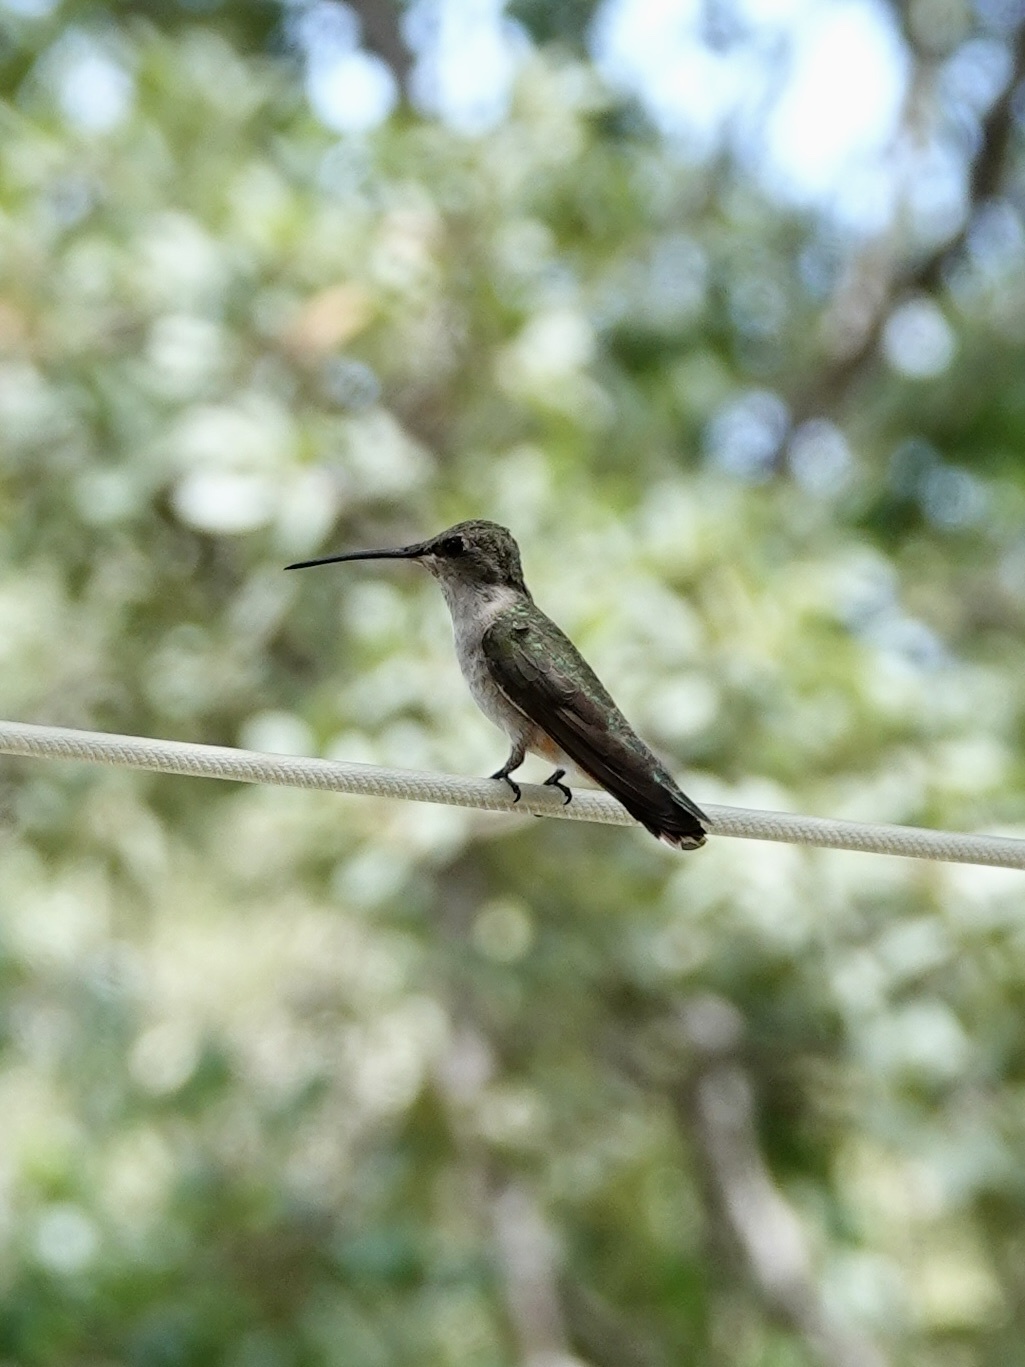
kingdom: Animalia
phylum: Chordata
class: Aves
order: Apodiformes
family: Trochilidae
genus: Archilochus
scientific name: Archilochus alexandri
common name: Black-chinned hummingbird
